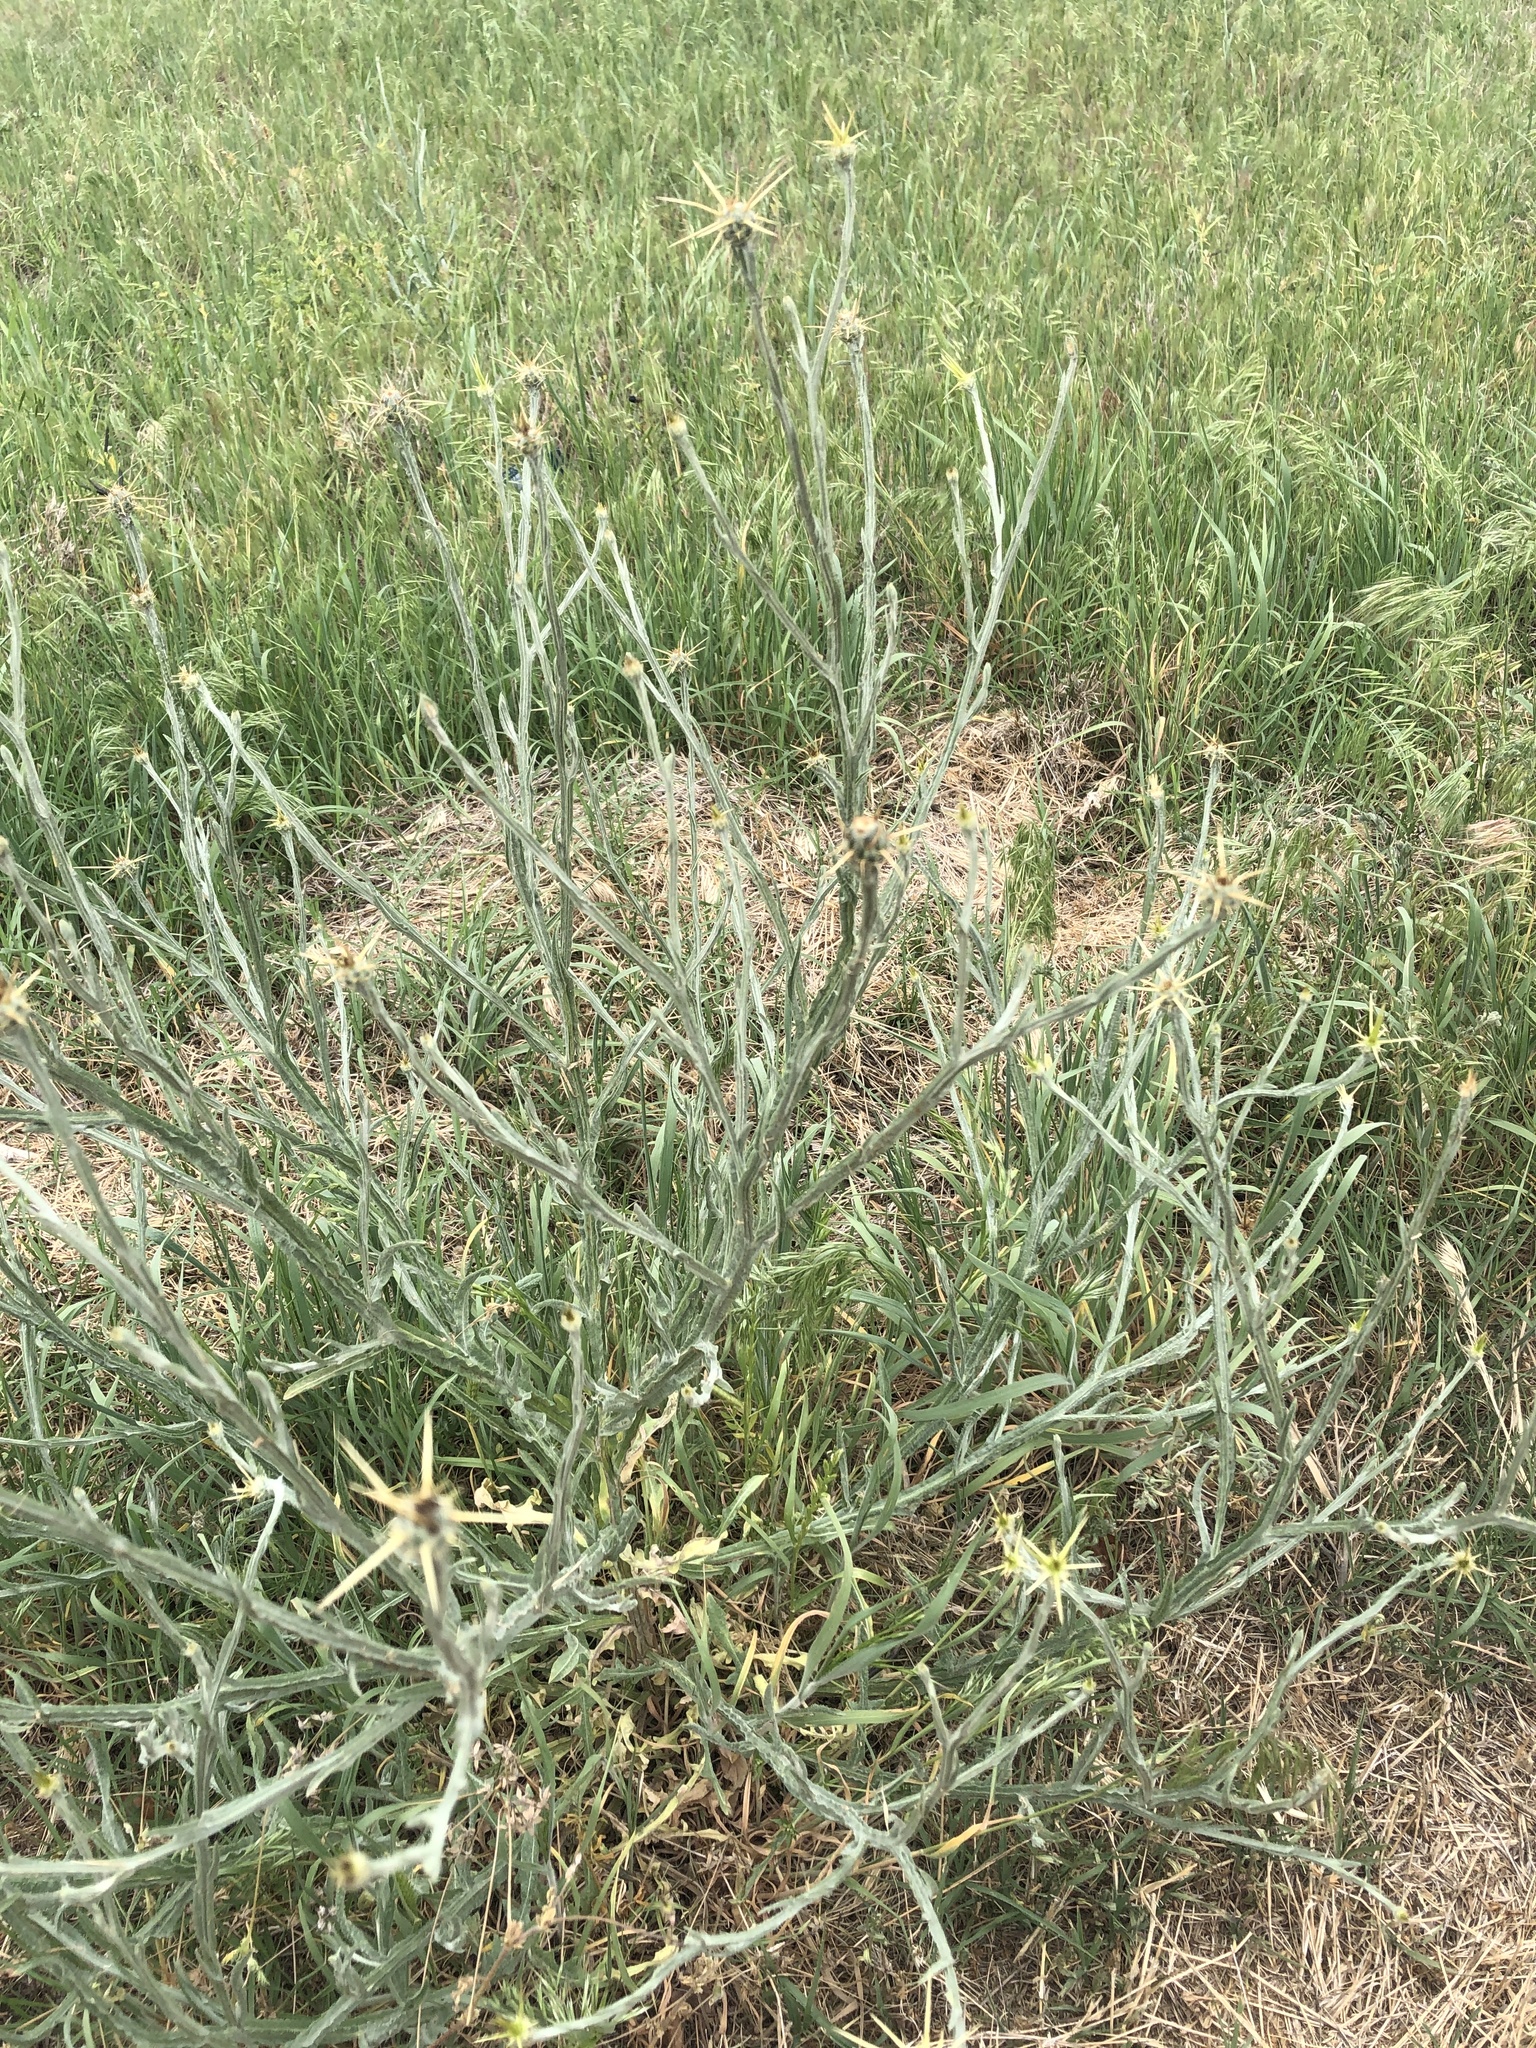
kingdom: Plantae
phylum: Tracheophyta
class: Magnoliopsida
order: Asterales
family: Asteraceae
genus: Centaurea
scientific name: Centaurea solstitialis
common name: Yellow star-thistle
